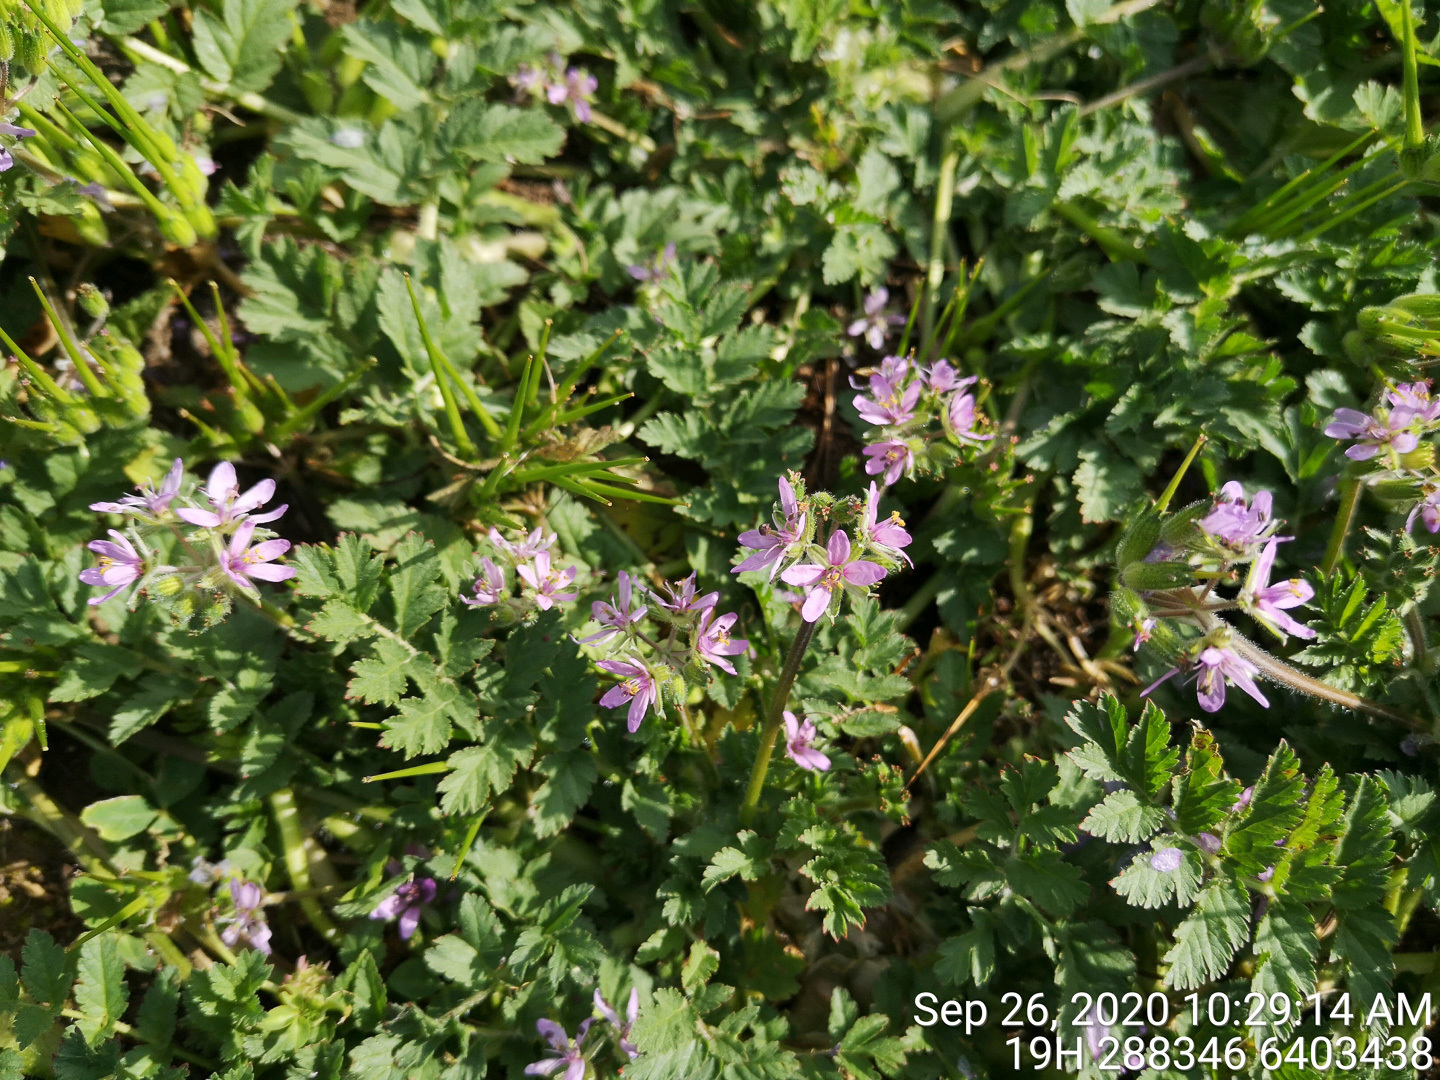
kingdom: Plantae
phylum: Tracheophyta
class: Magnoliopsida
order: Geraniales
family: Geraniaceae
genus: Erodium
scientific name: Erodium moschatum
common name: Musk stork's-bill
